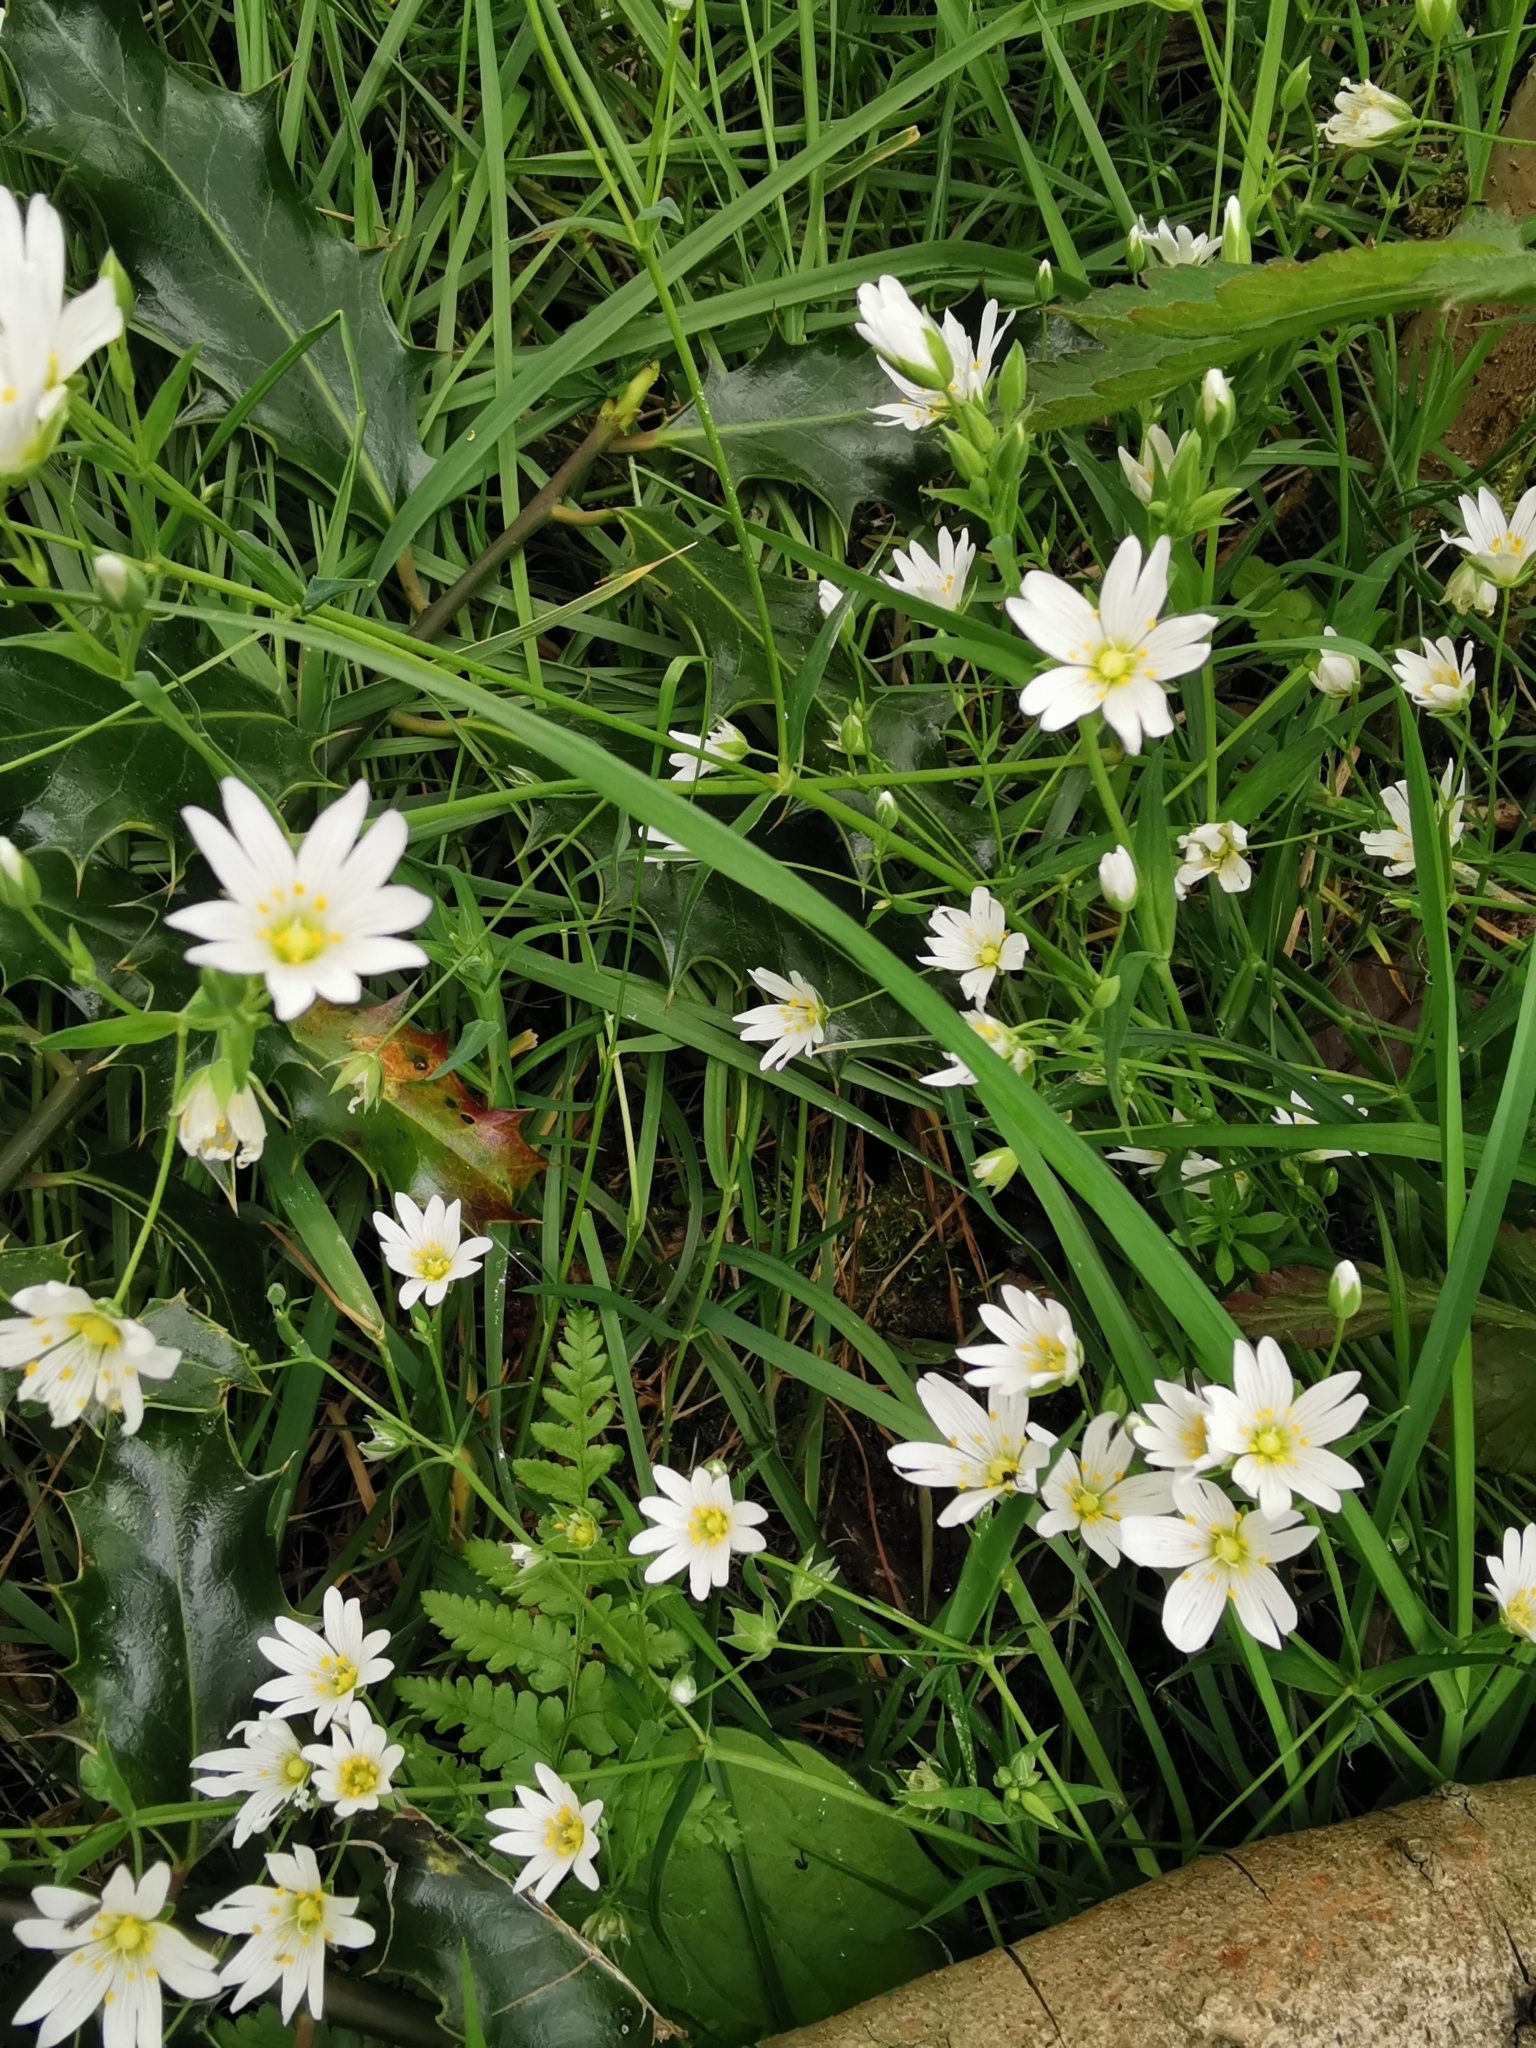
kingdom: Plantae
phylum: Tracheophyta
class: Magnoliopsida
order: Caryophyllales
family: Caryophyllaceae
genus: Rabelera
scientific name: Rabelera holostea
